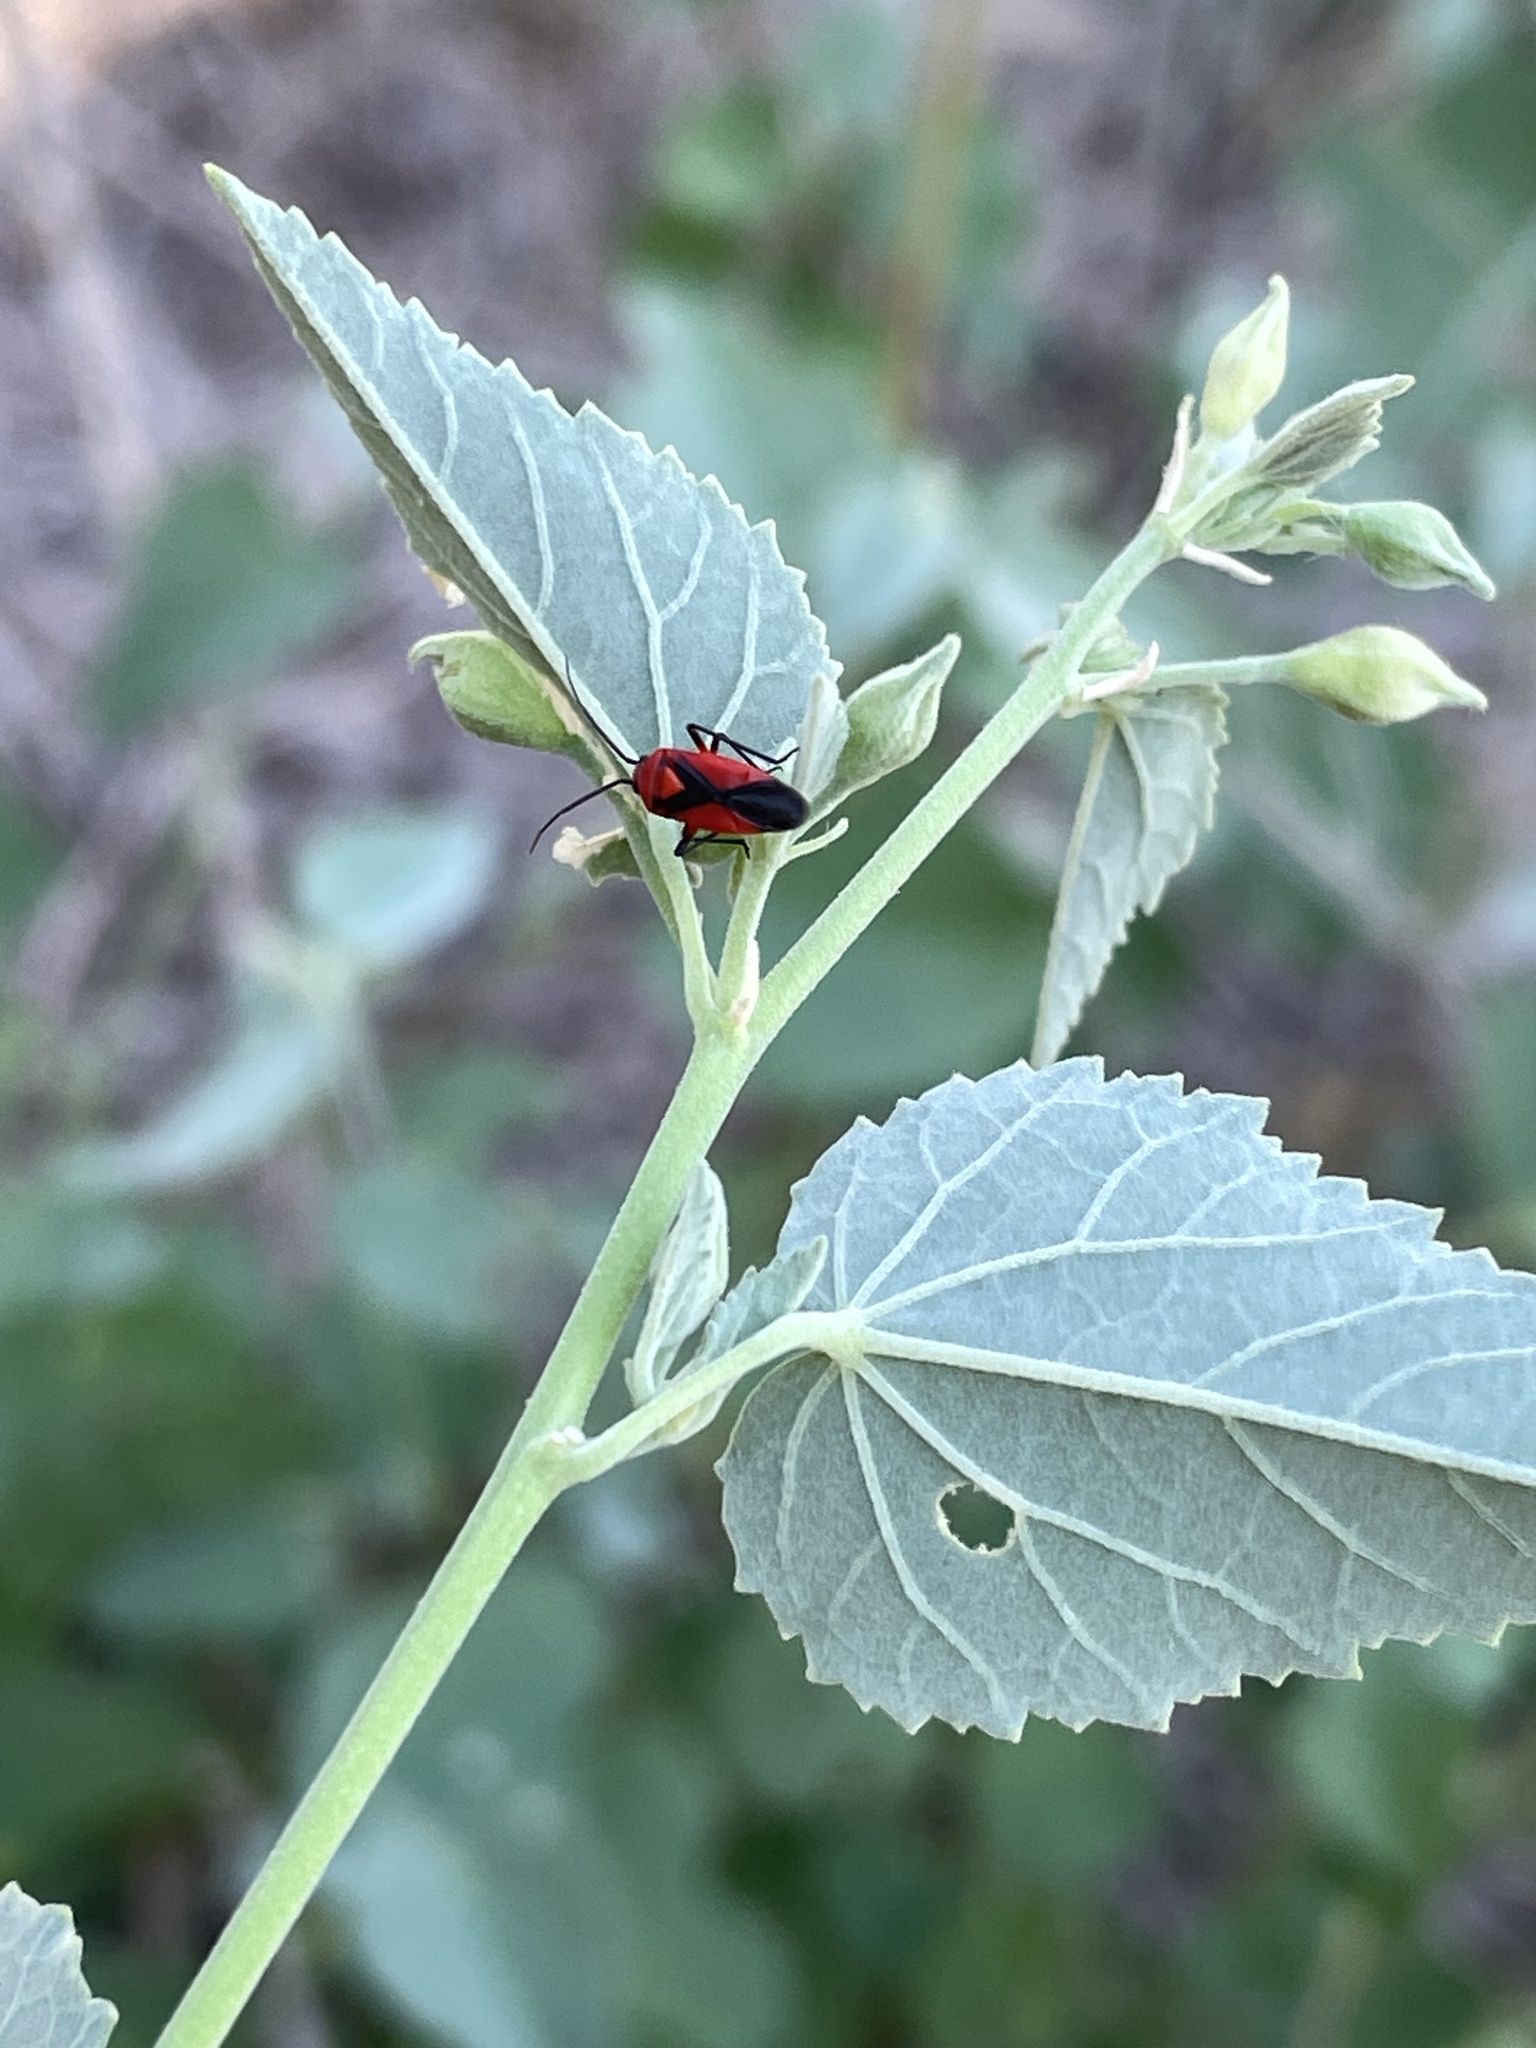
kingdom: Animalia
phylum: Arthropoda
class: Insecta
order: Hemiptera
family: Miridae
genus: Oncerometopus
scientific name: Oncerometopus nigriclavus
